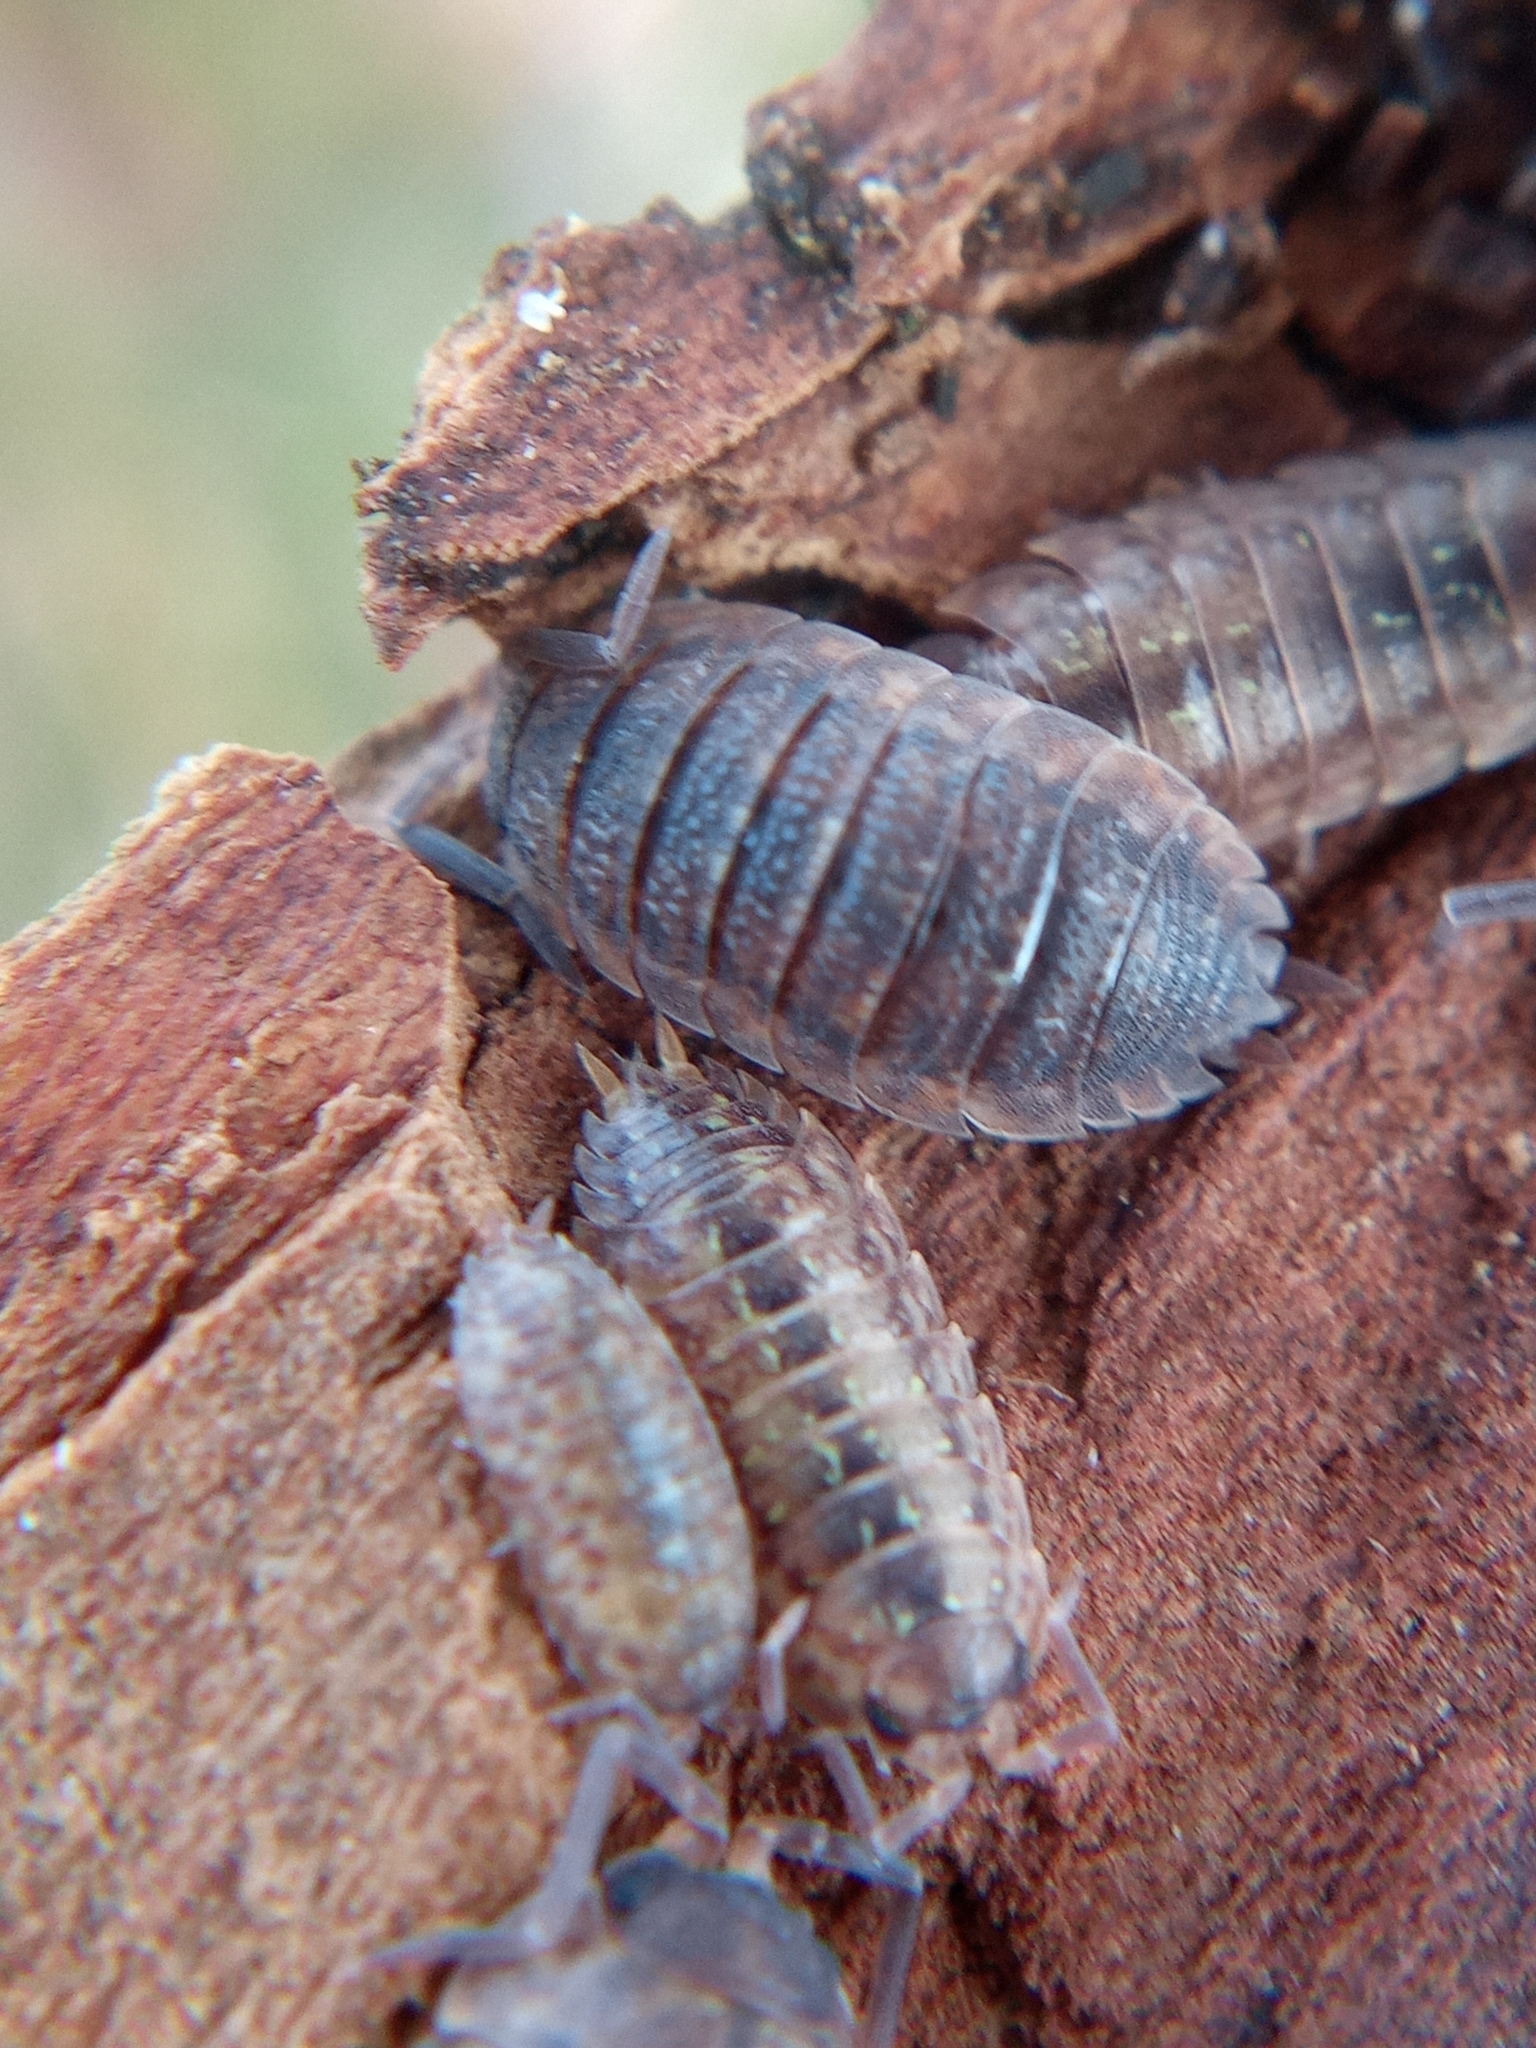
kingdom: Animalia
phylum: Arthropoda
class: Malacostraca
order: Isopoda
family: Porcellionidae
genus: Porcellio
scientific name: Porcellio scaber
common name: Common rough woodlouse
